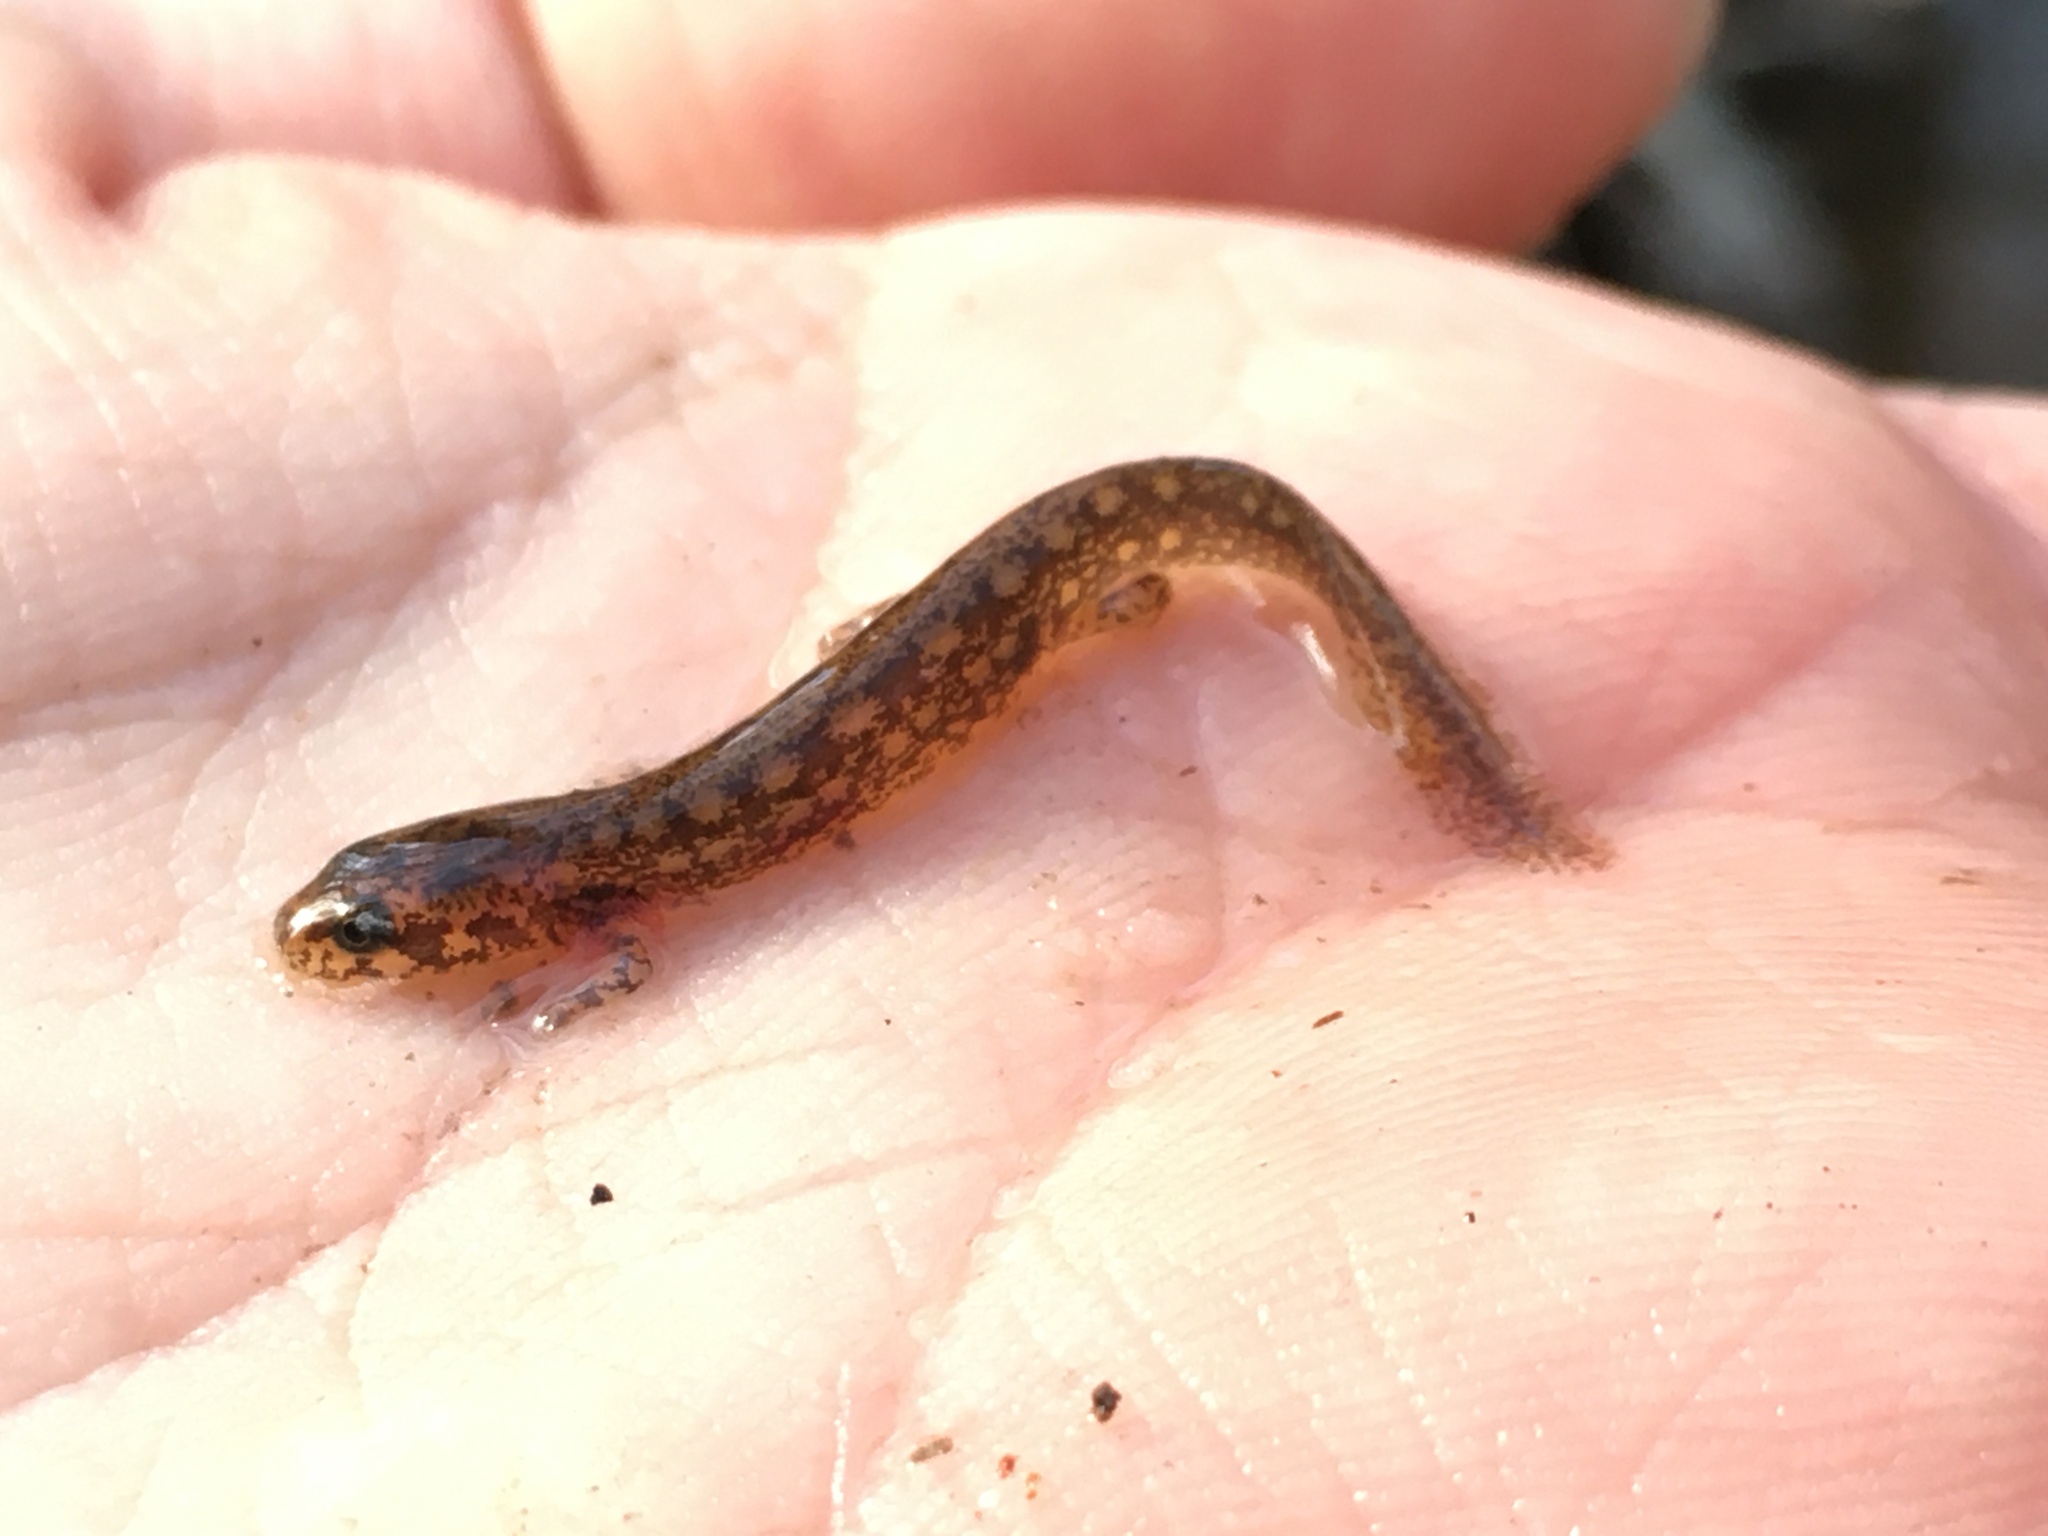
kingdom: Animalia
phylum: Chordata
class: Amphibia
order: Caudata
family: Plethodontidae
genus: Eurycea
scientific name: Eurycea
